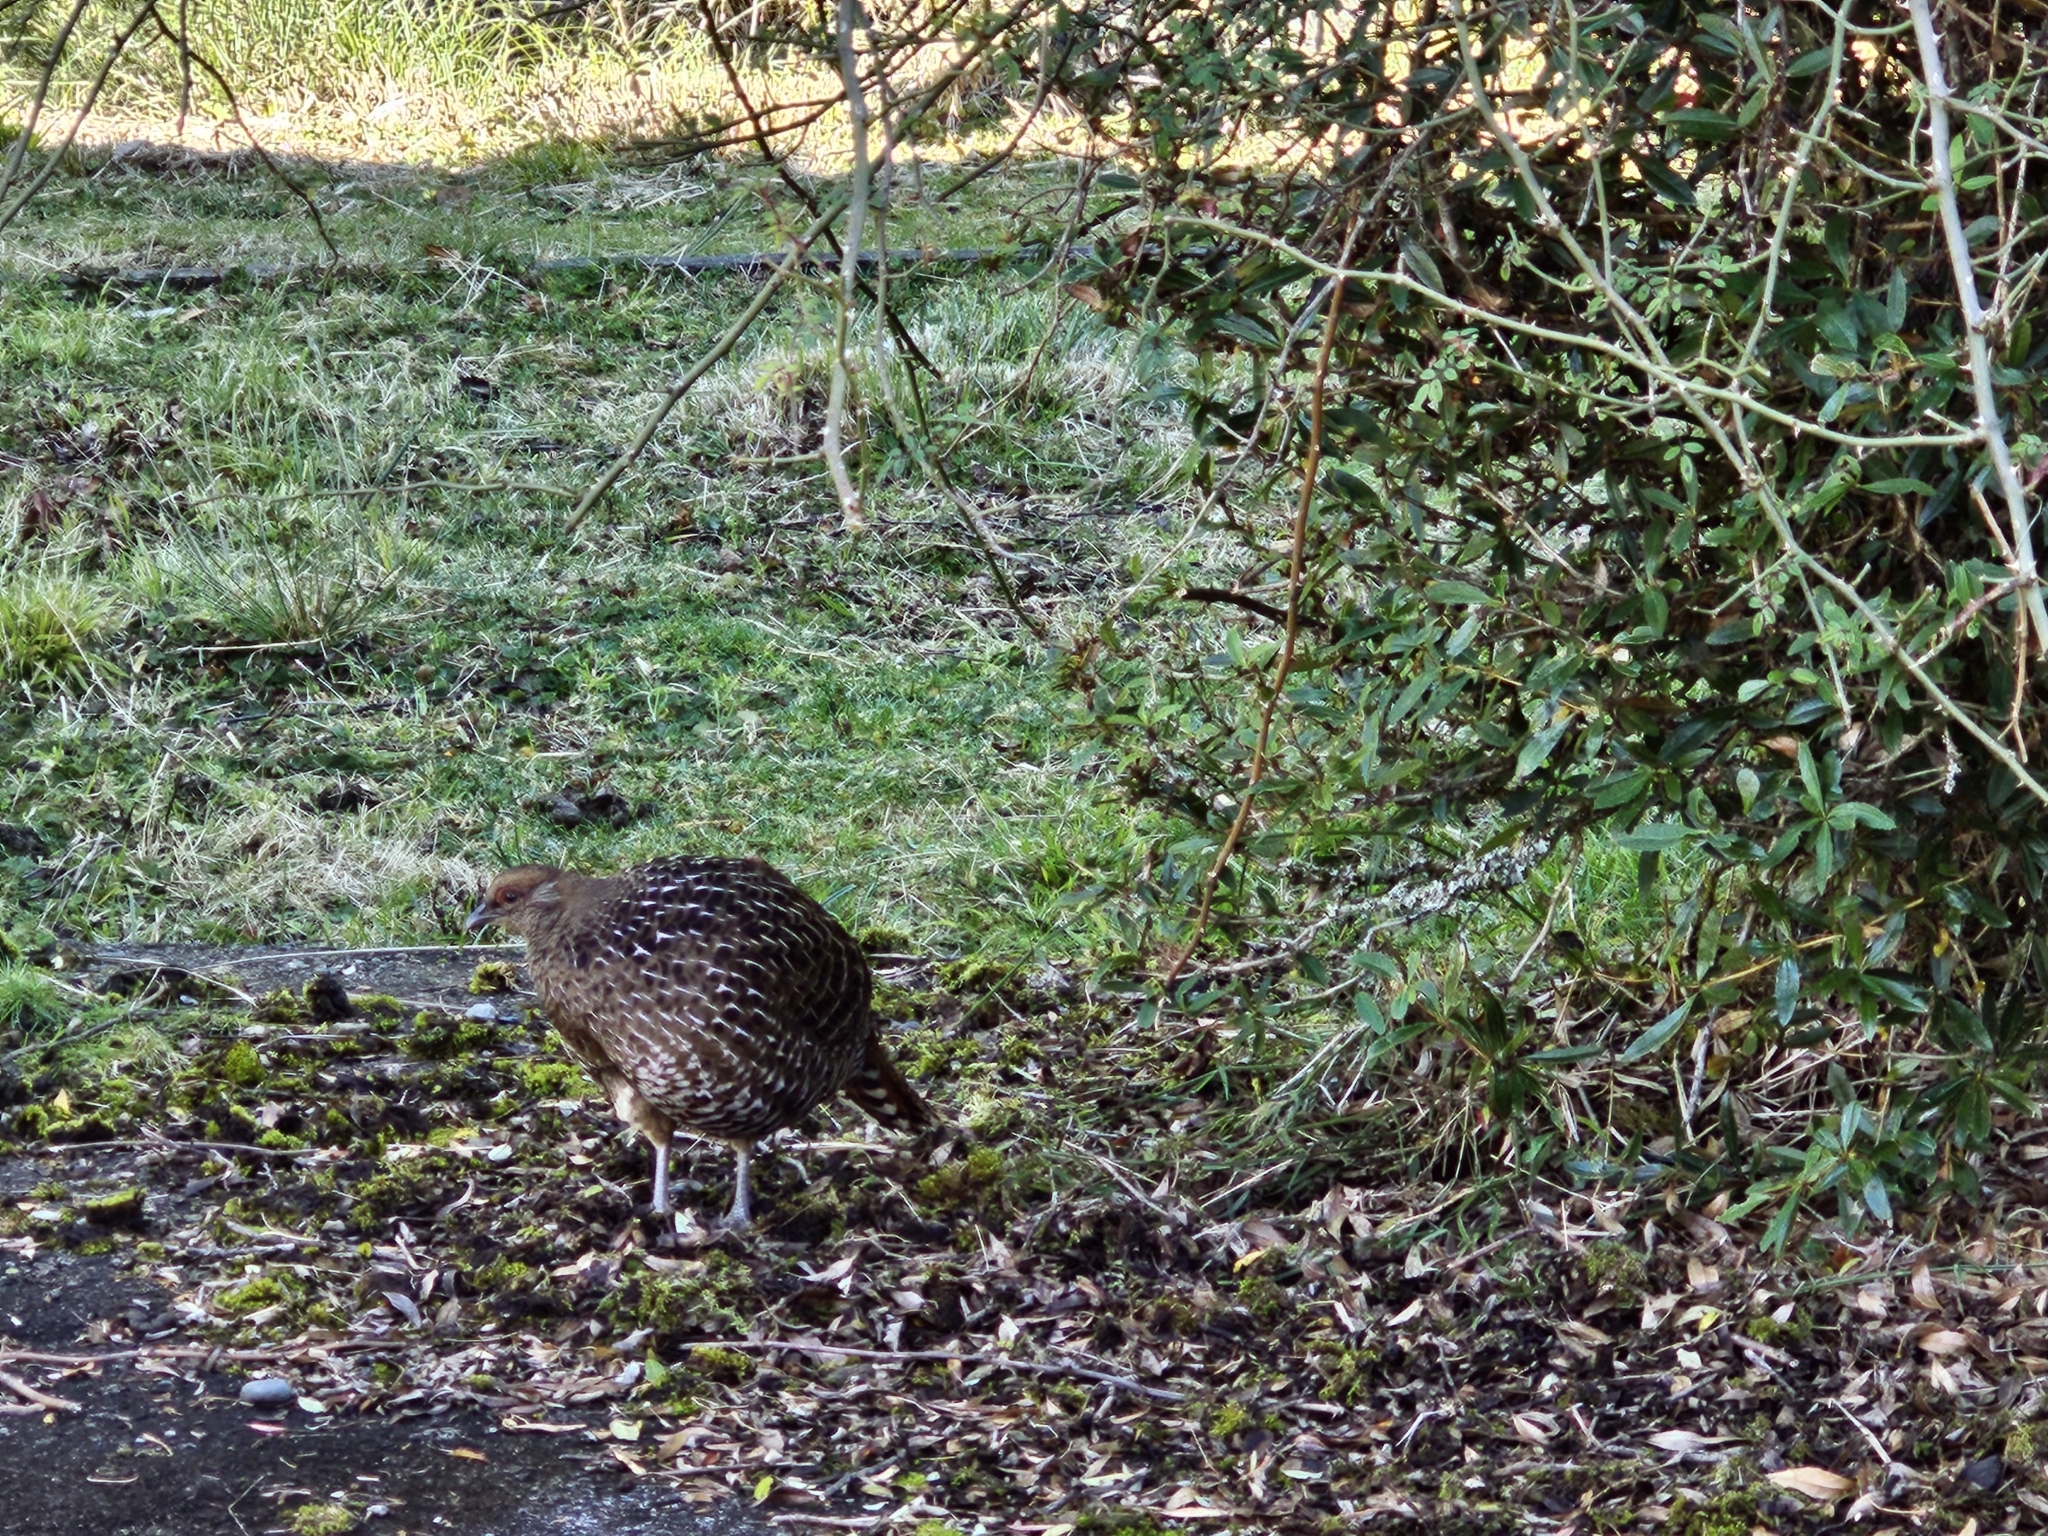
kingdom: Animalia
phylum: Chordata
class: Aves
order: Galliformes
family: Phasianidae
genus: Syrmaticus
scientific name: Syrmaticus mikado
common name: Mikado pheasant
